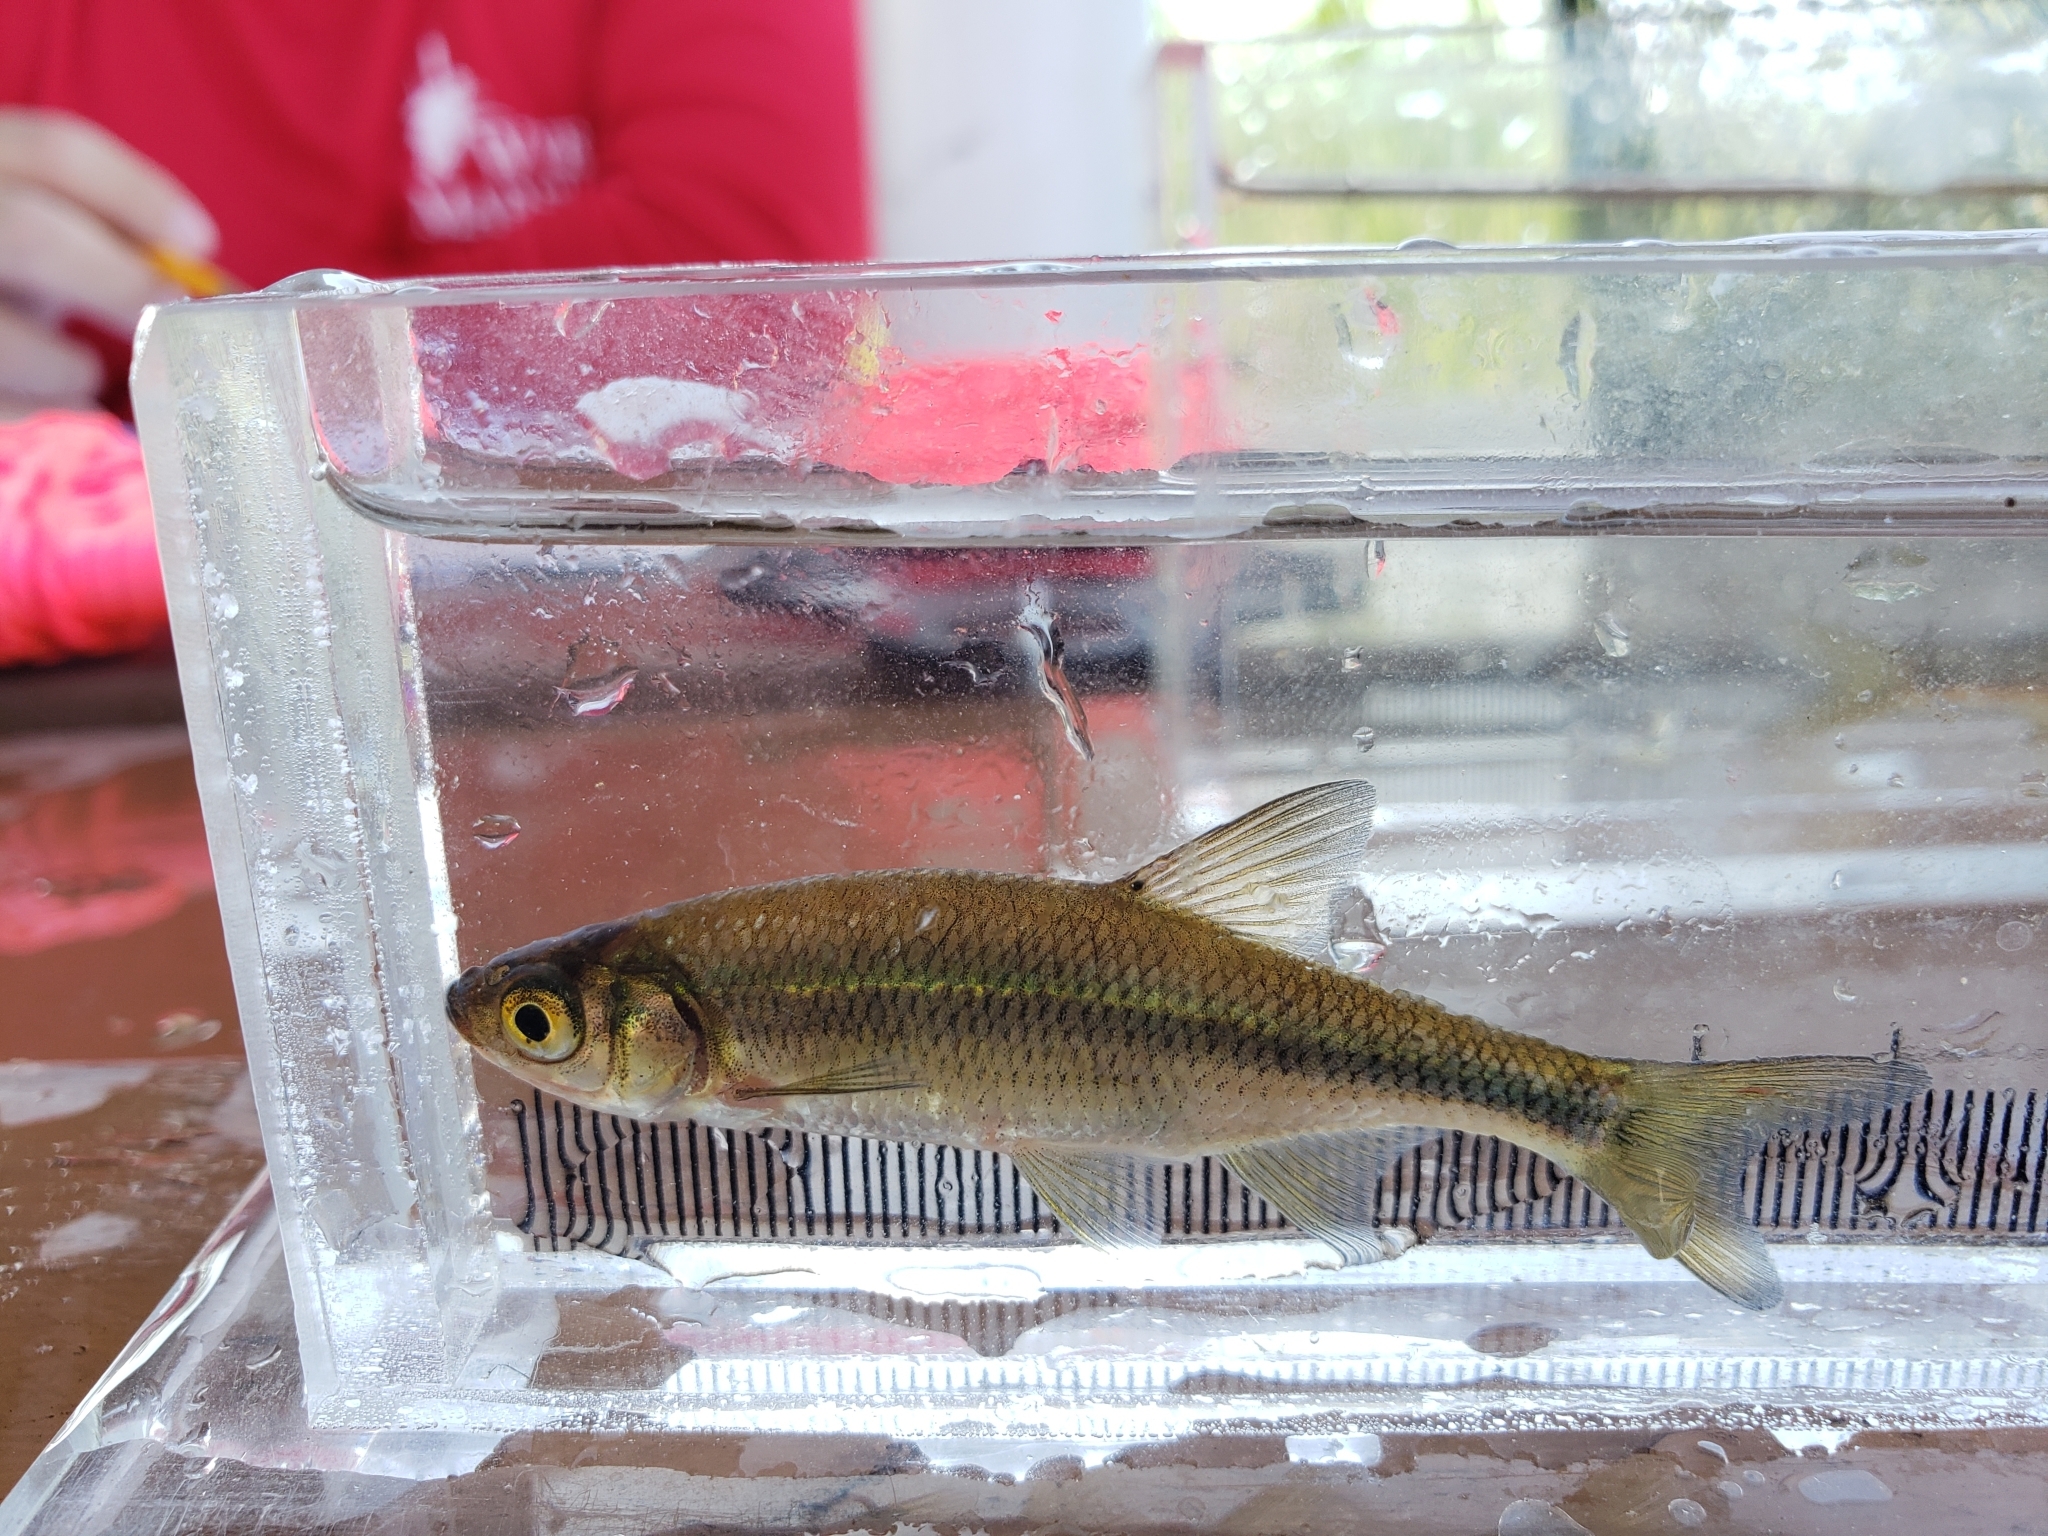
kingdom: Animalia
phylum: Chordata
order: Cypriniformes
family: Cyprinidae
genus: Notemigonus
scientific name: Notemigonus crysoleucas
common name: Golden shiner
